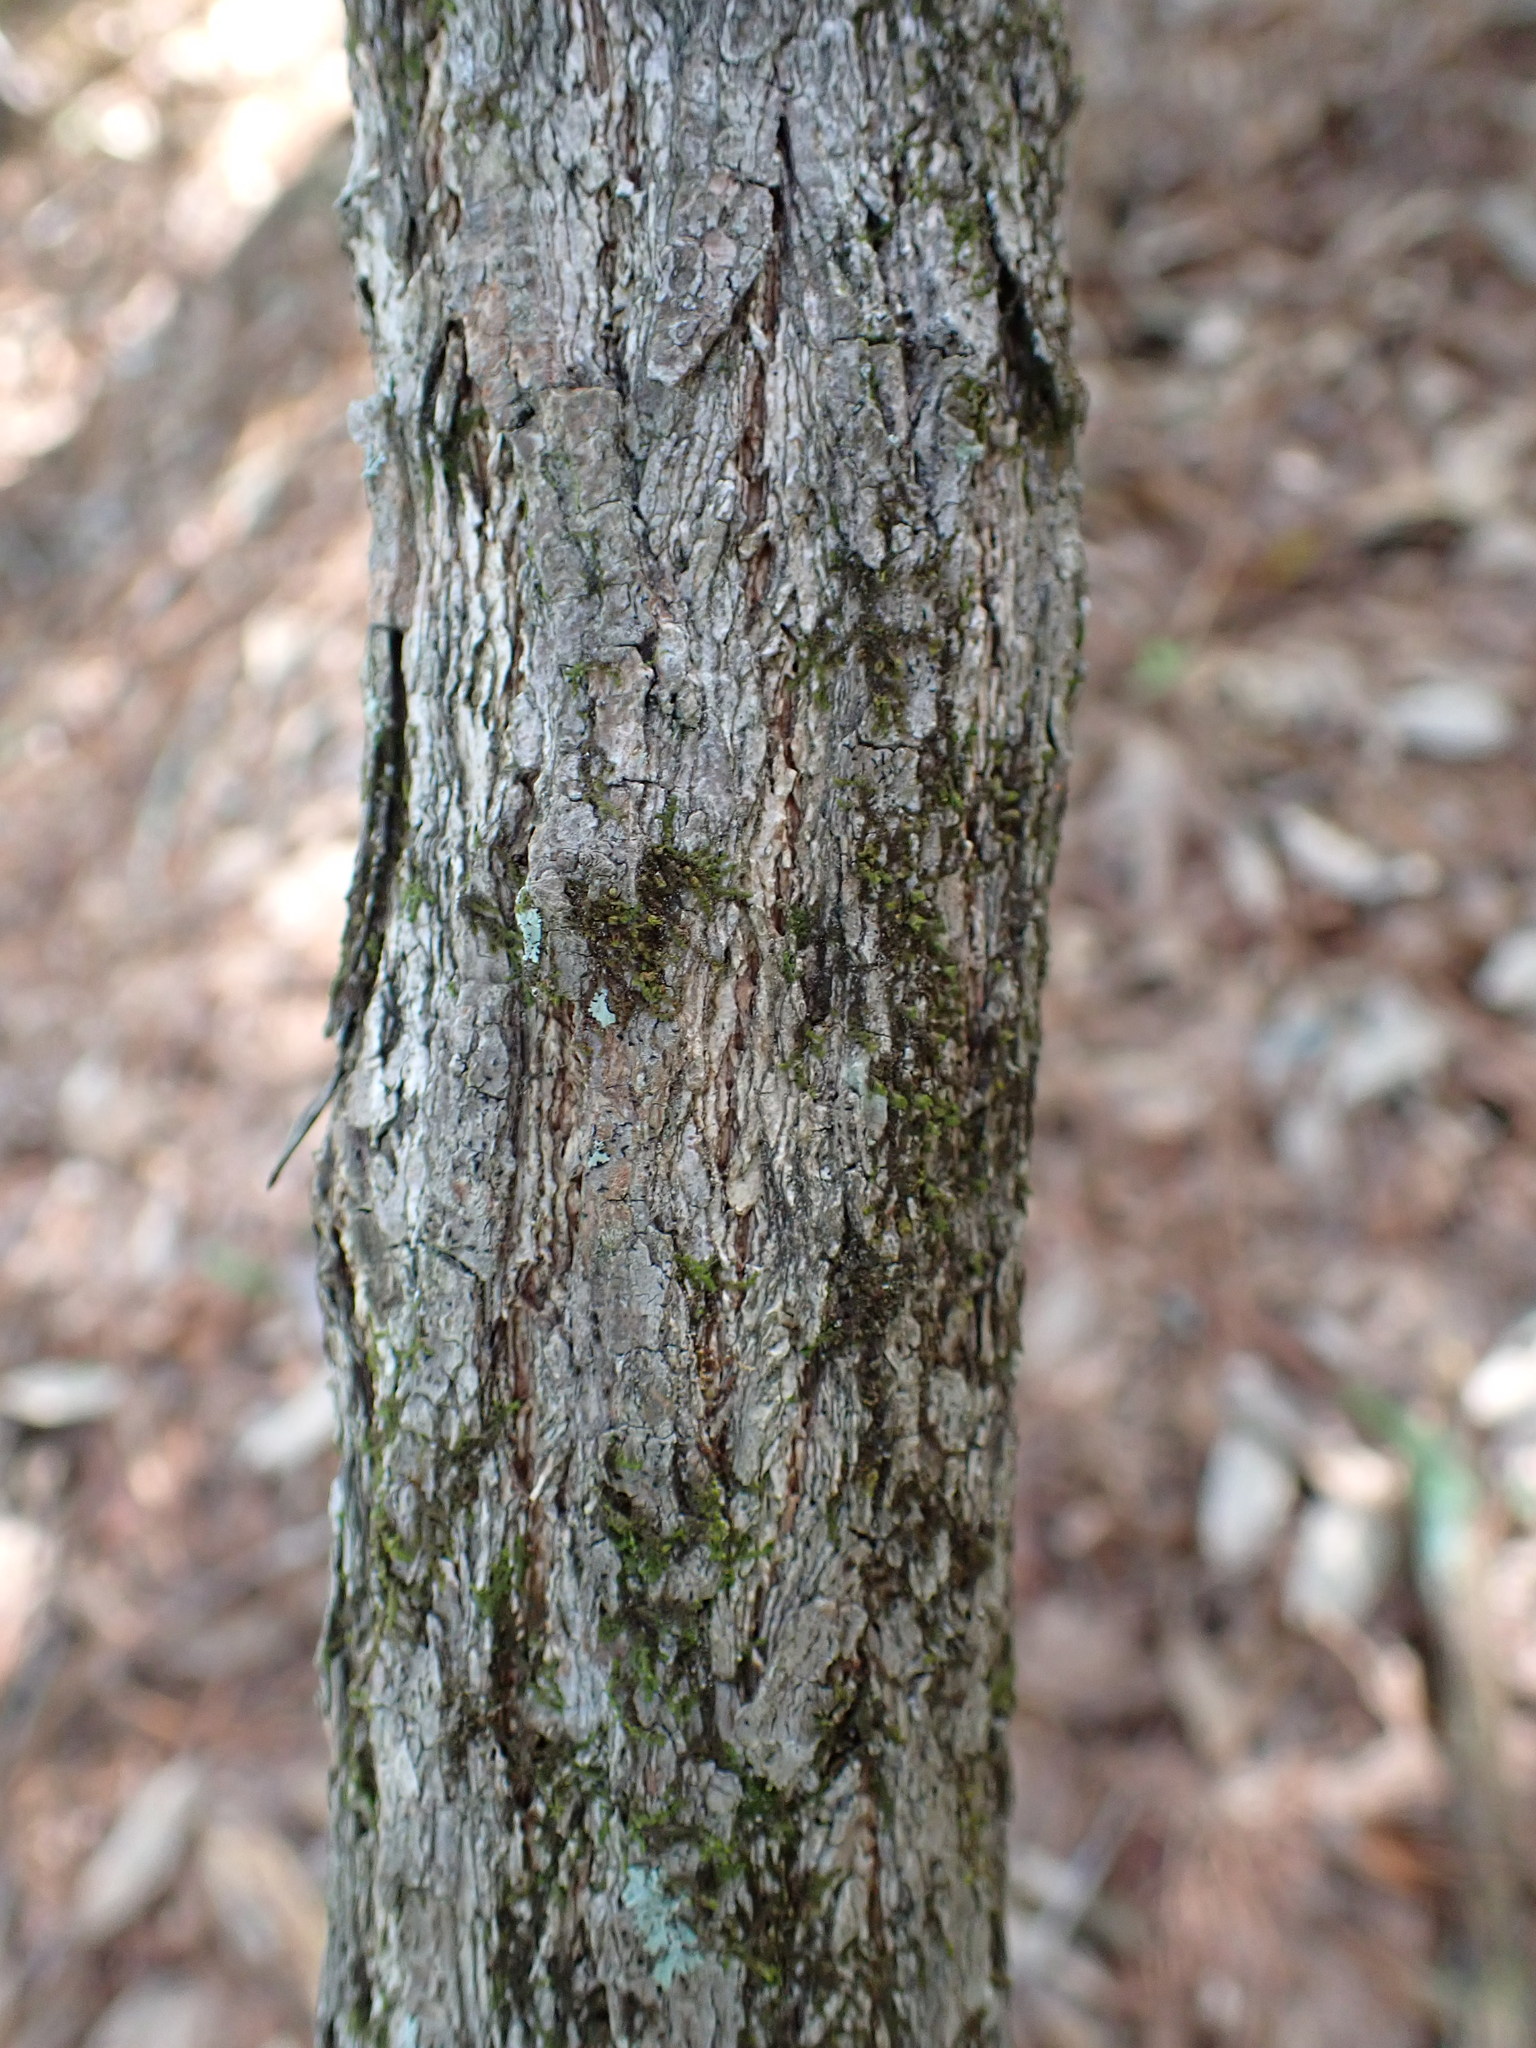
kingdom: Plantae
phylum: Tracheophyta
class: Magnoliopsida
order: Laurales
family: Lauraceae
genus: Sassafras
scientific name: Sassafras albidum
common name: Sassafras
